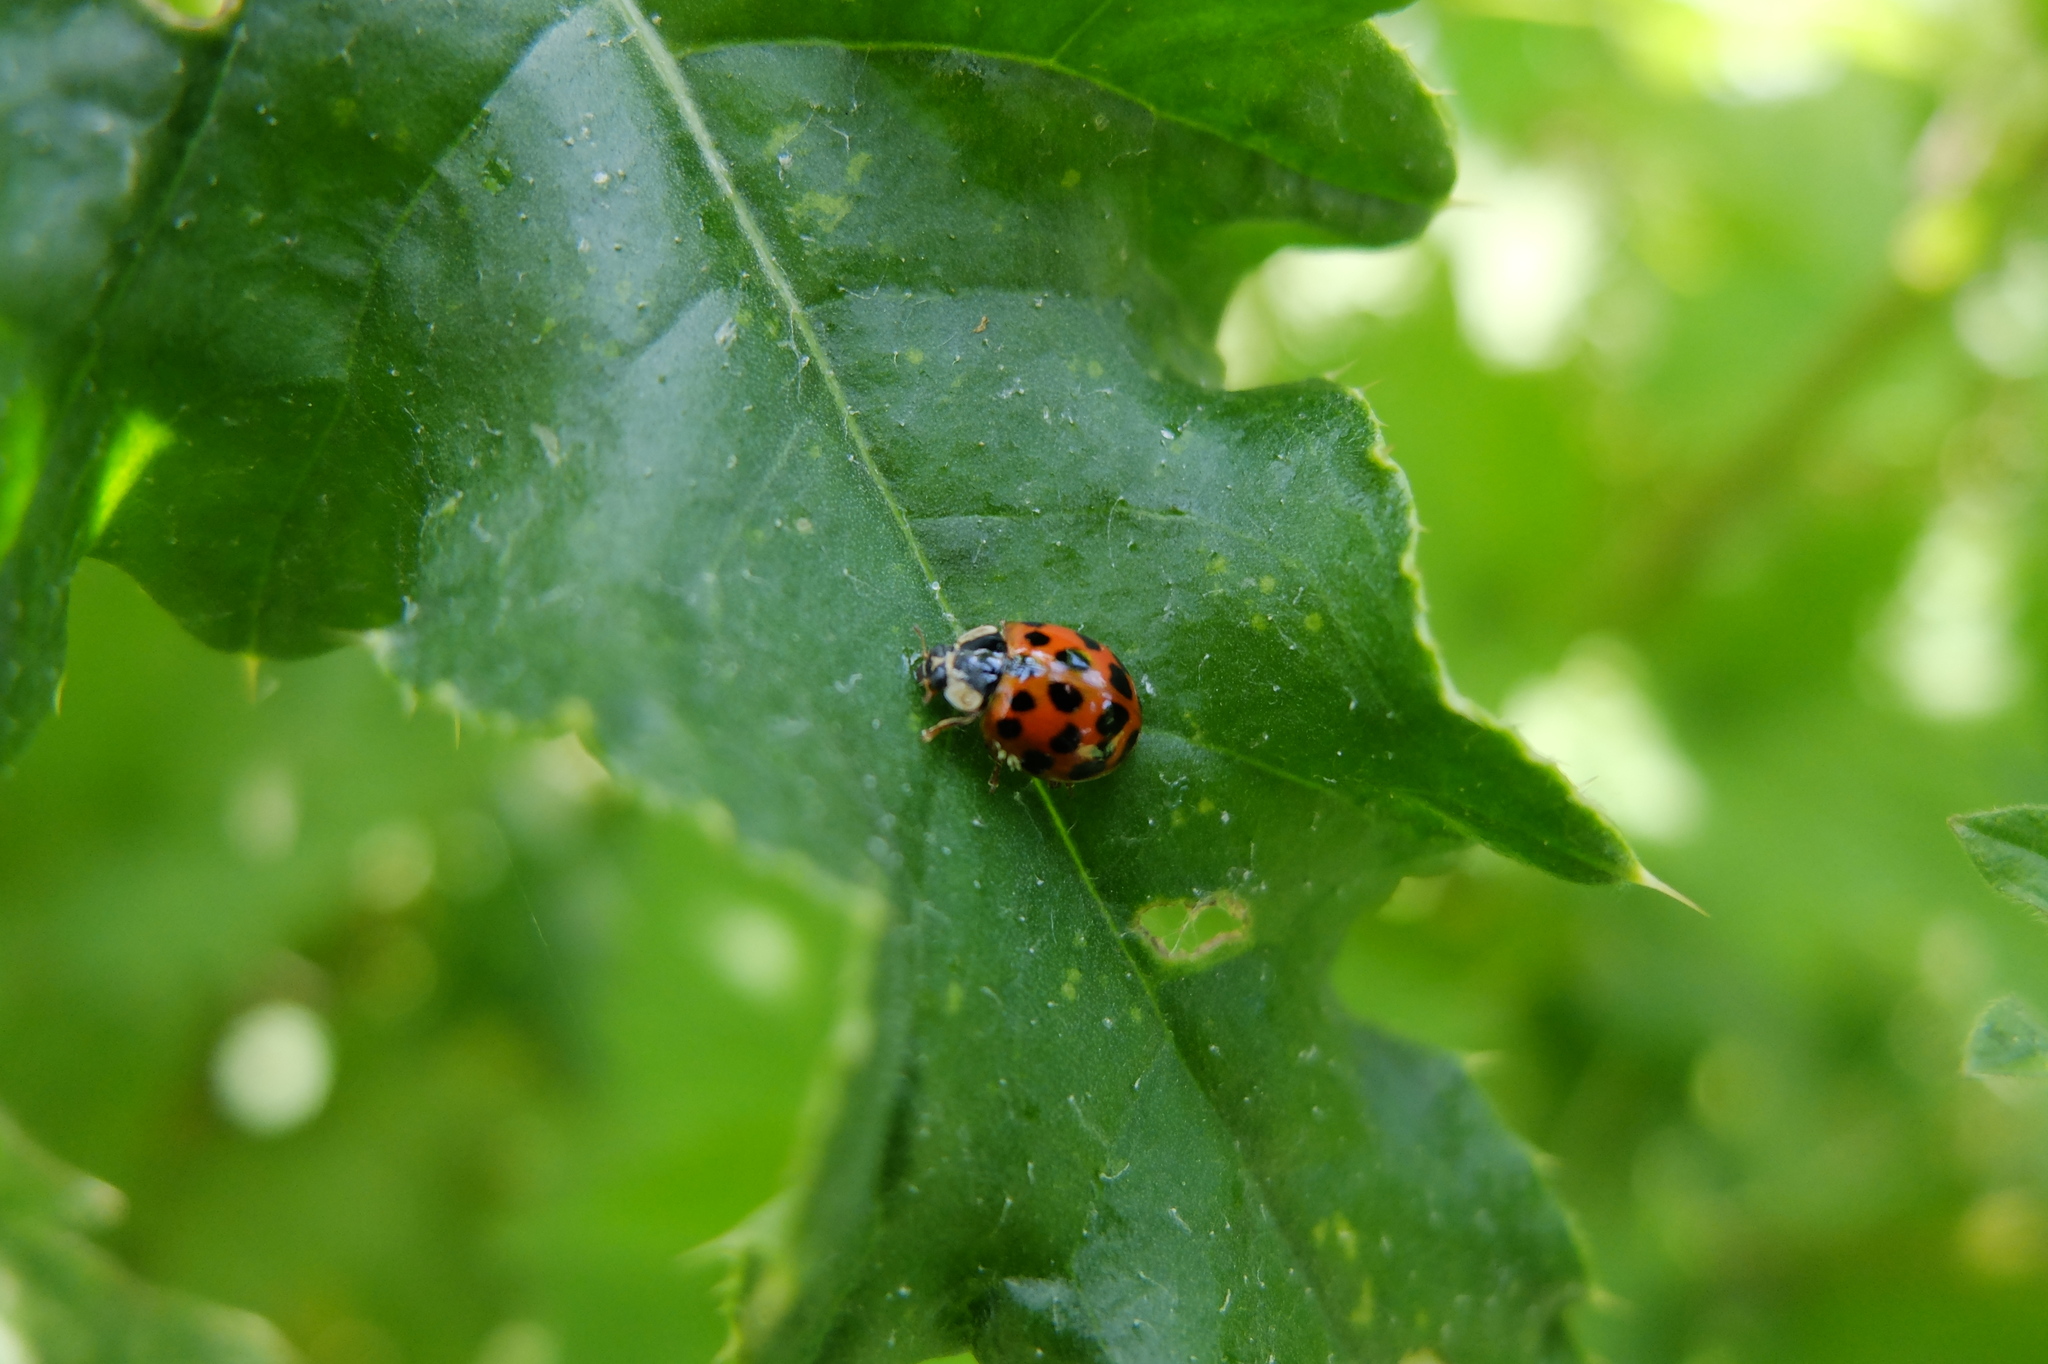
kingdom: Animalia
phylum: Arthropoda
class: Insecta
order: Coleoptera
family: Coccinellidae
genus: Harmonia
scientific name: Harmonia axyridis
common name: Harlequin ladybird
